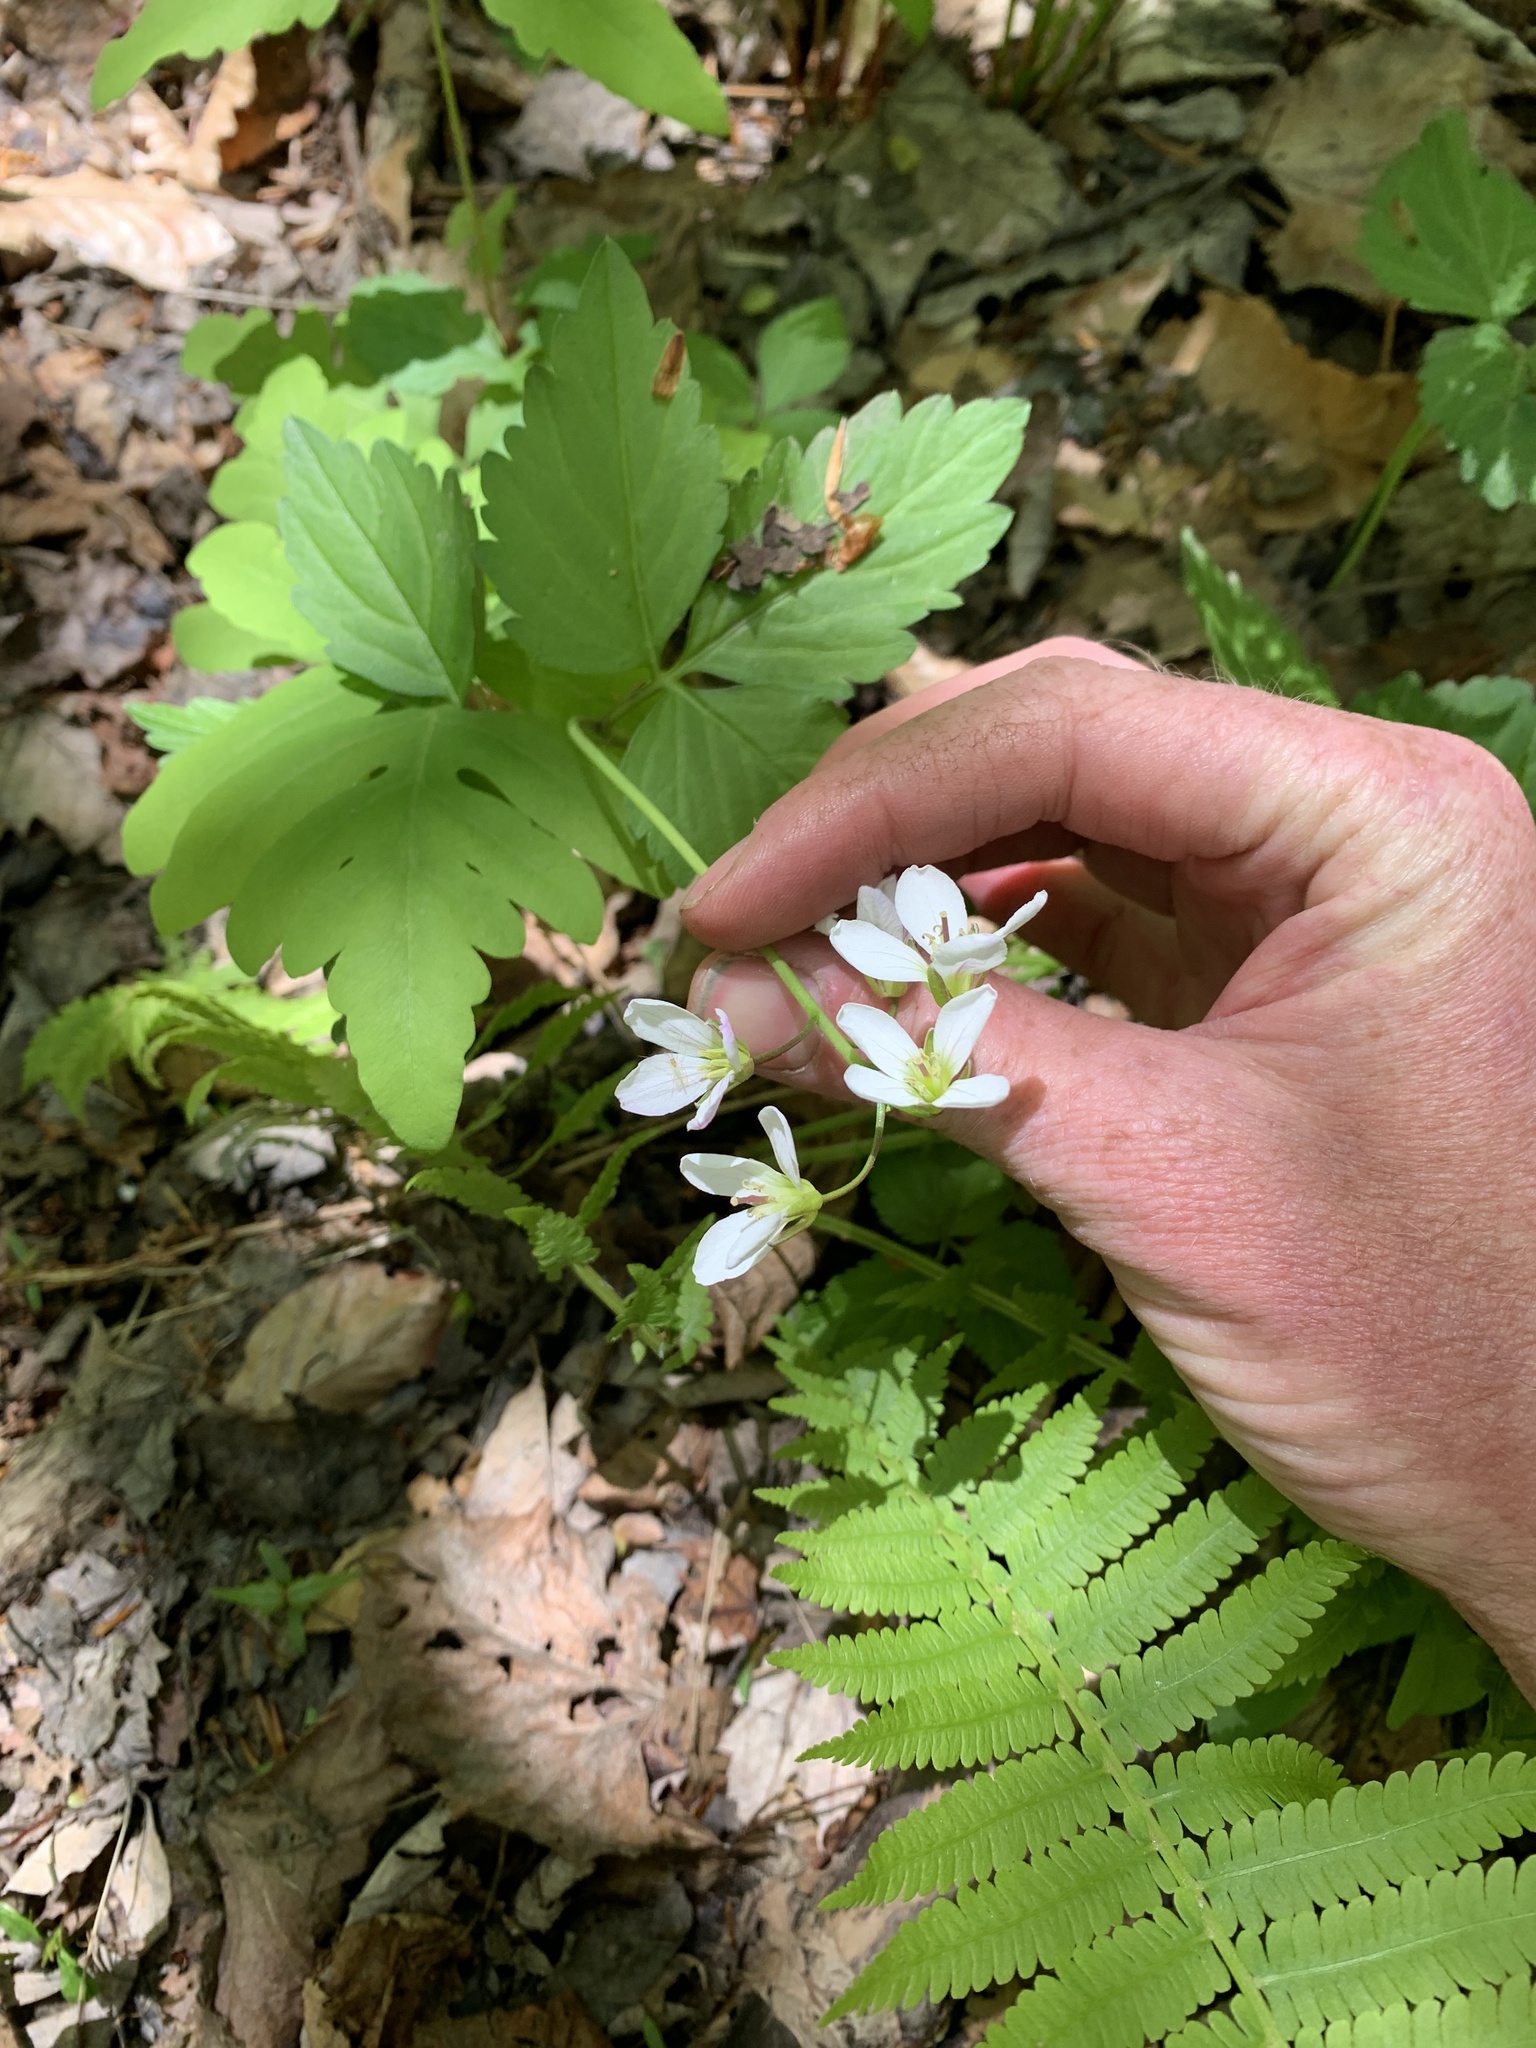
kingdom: Plantae
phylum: Tracheophyta
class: Magnoliopsida
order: Brassicales
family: Brassicaceae
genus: Cardamine
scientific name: Cardamine diphylla
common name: Broad-leaved toothwort
